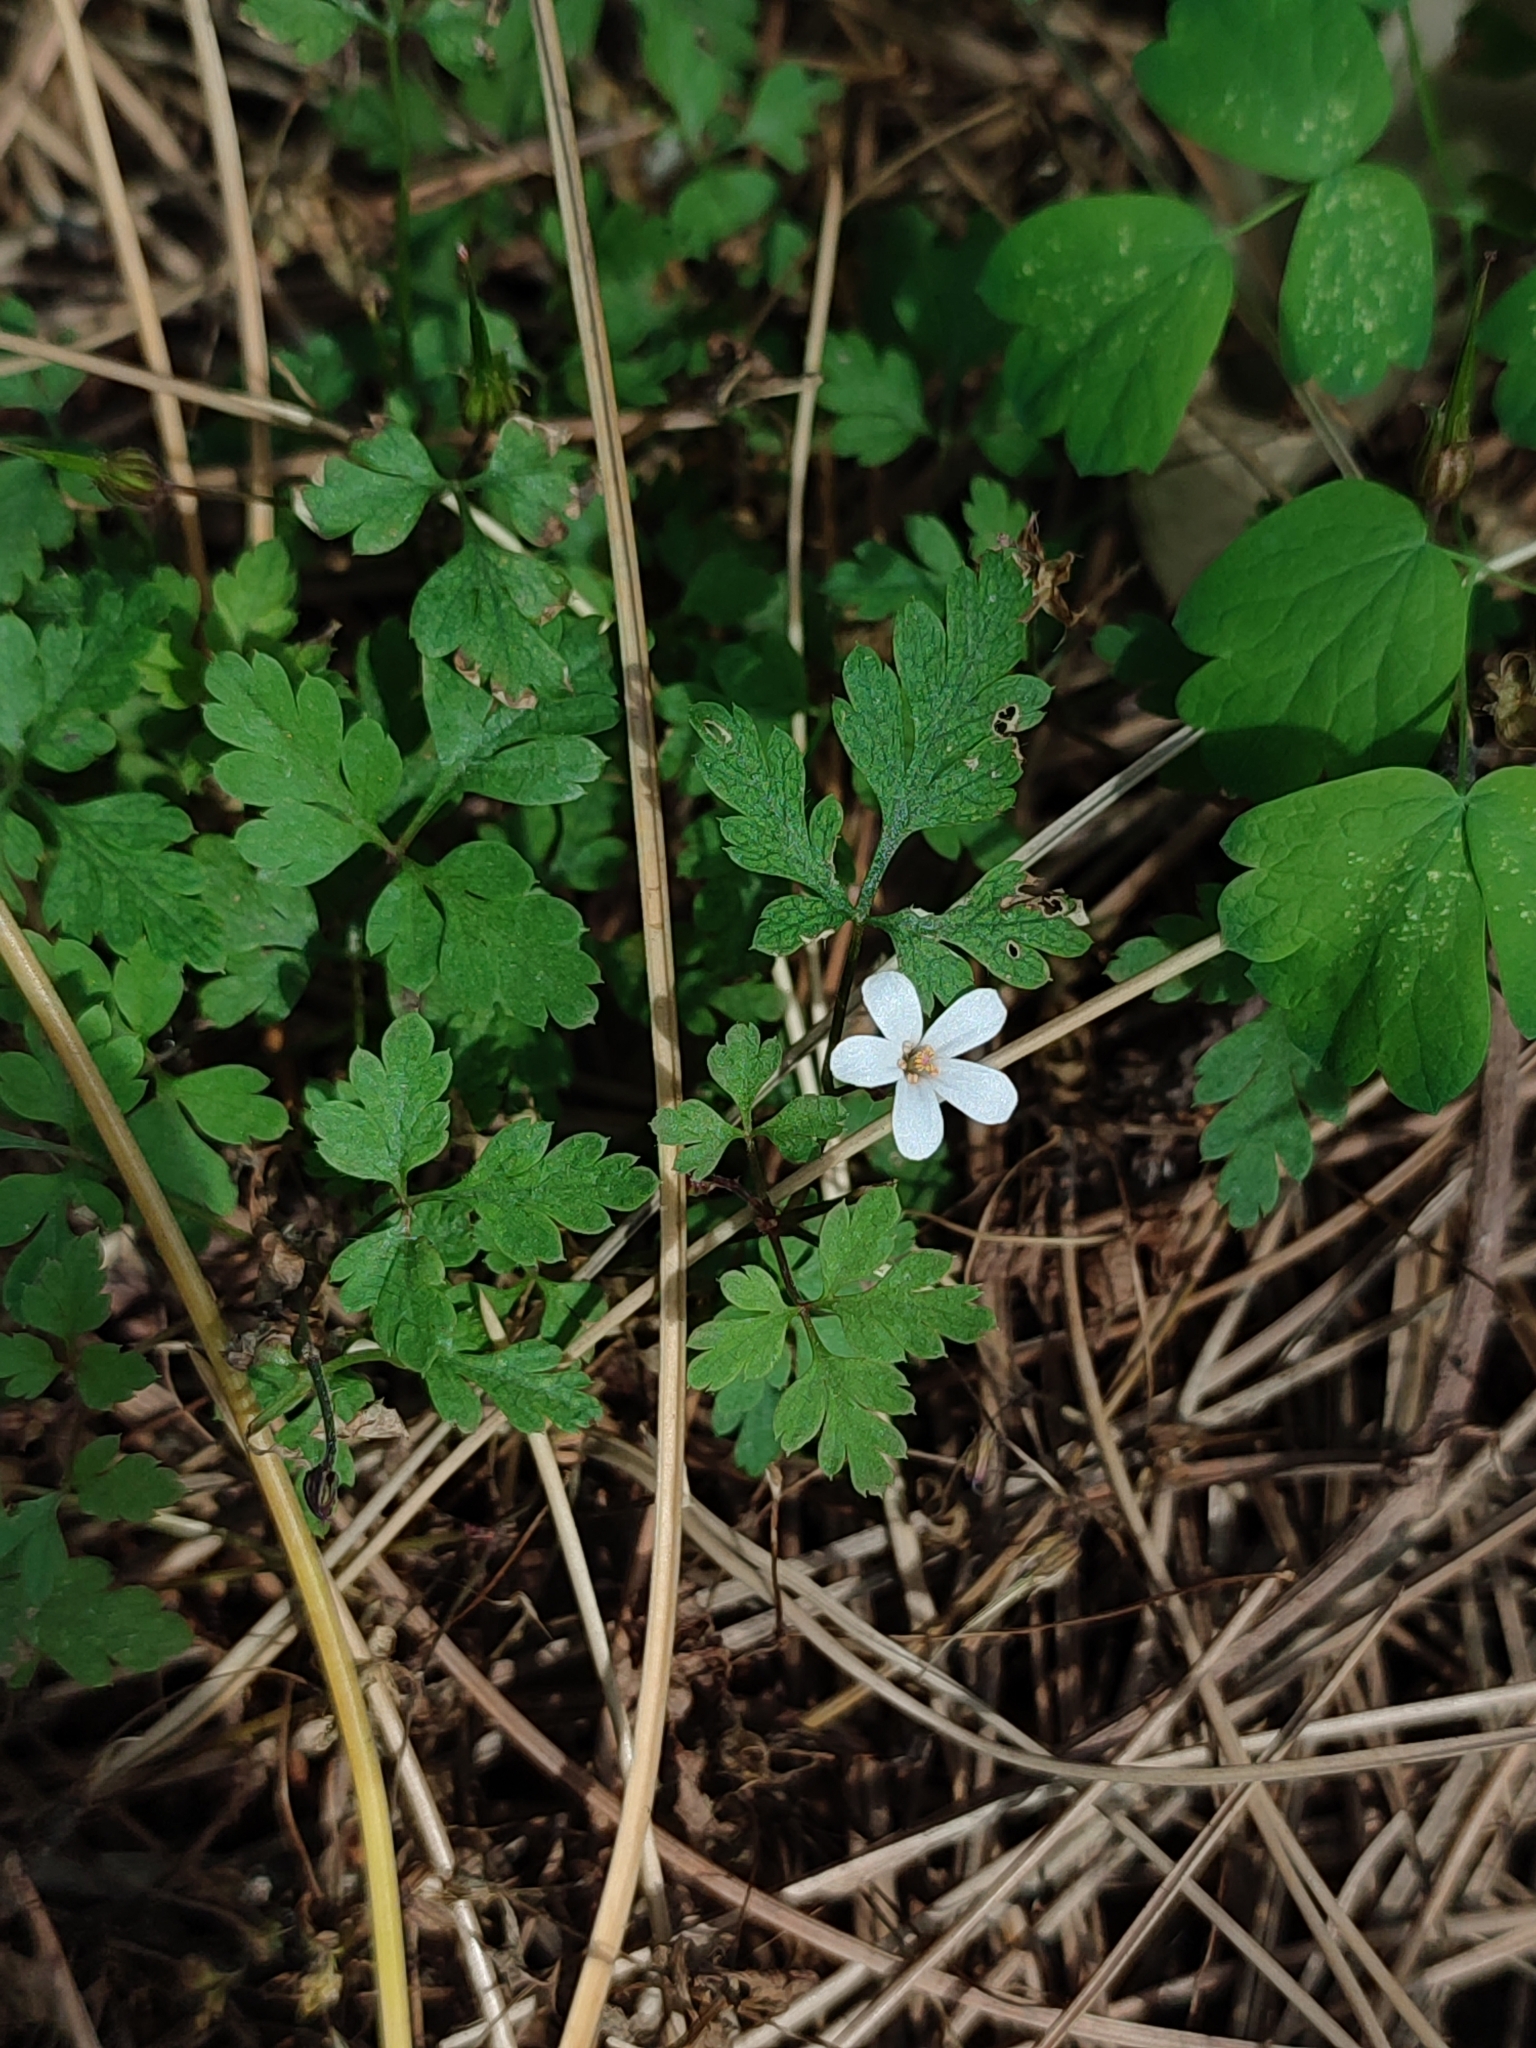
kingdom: Plantae
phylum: Tracheophyta
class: Magnoliopsida
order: Geraniales
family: Geraniaceae
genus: Geranium
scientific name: Geranium robertianum
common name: Herb-robert
